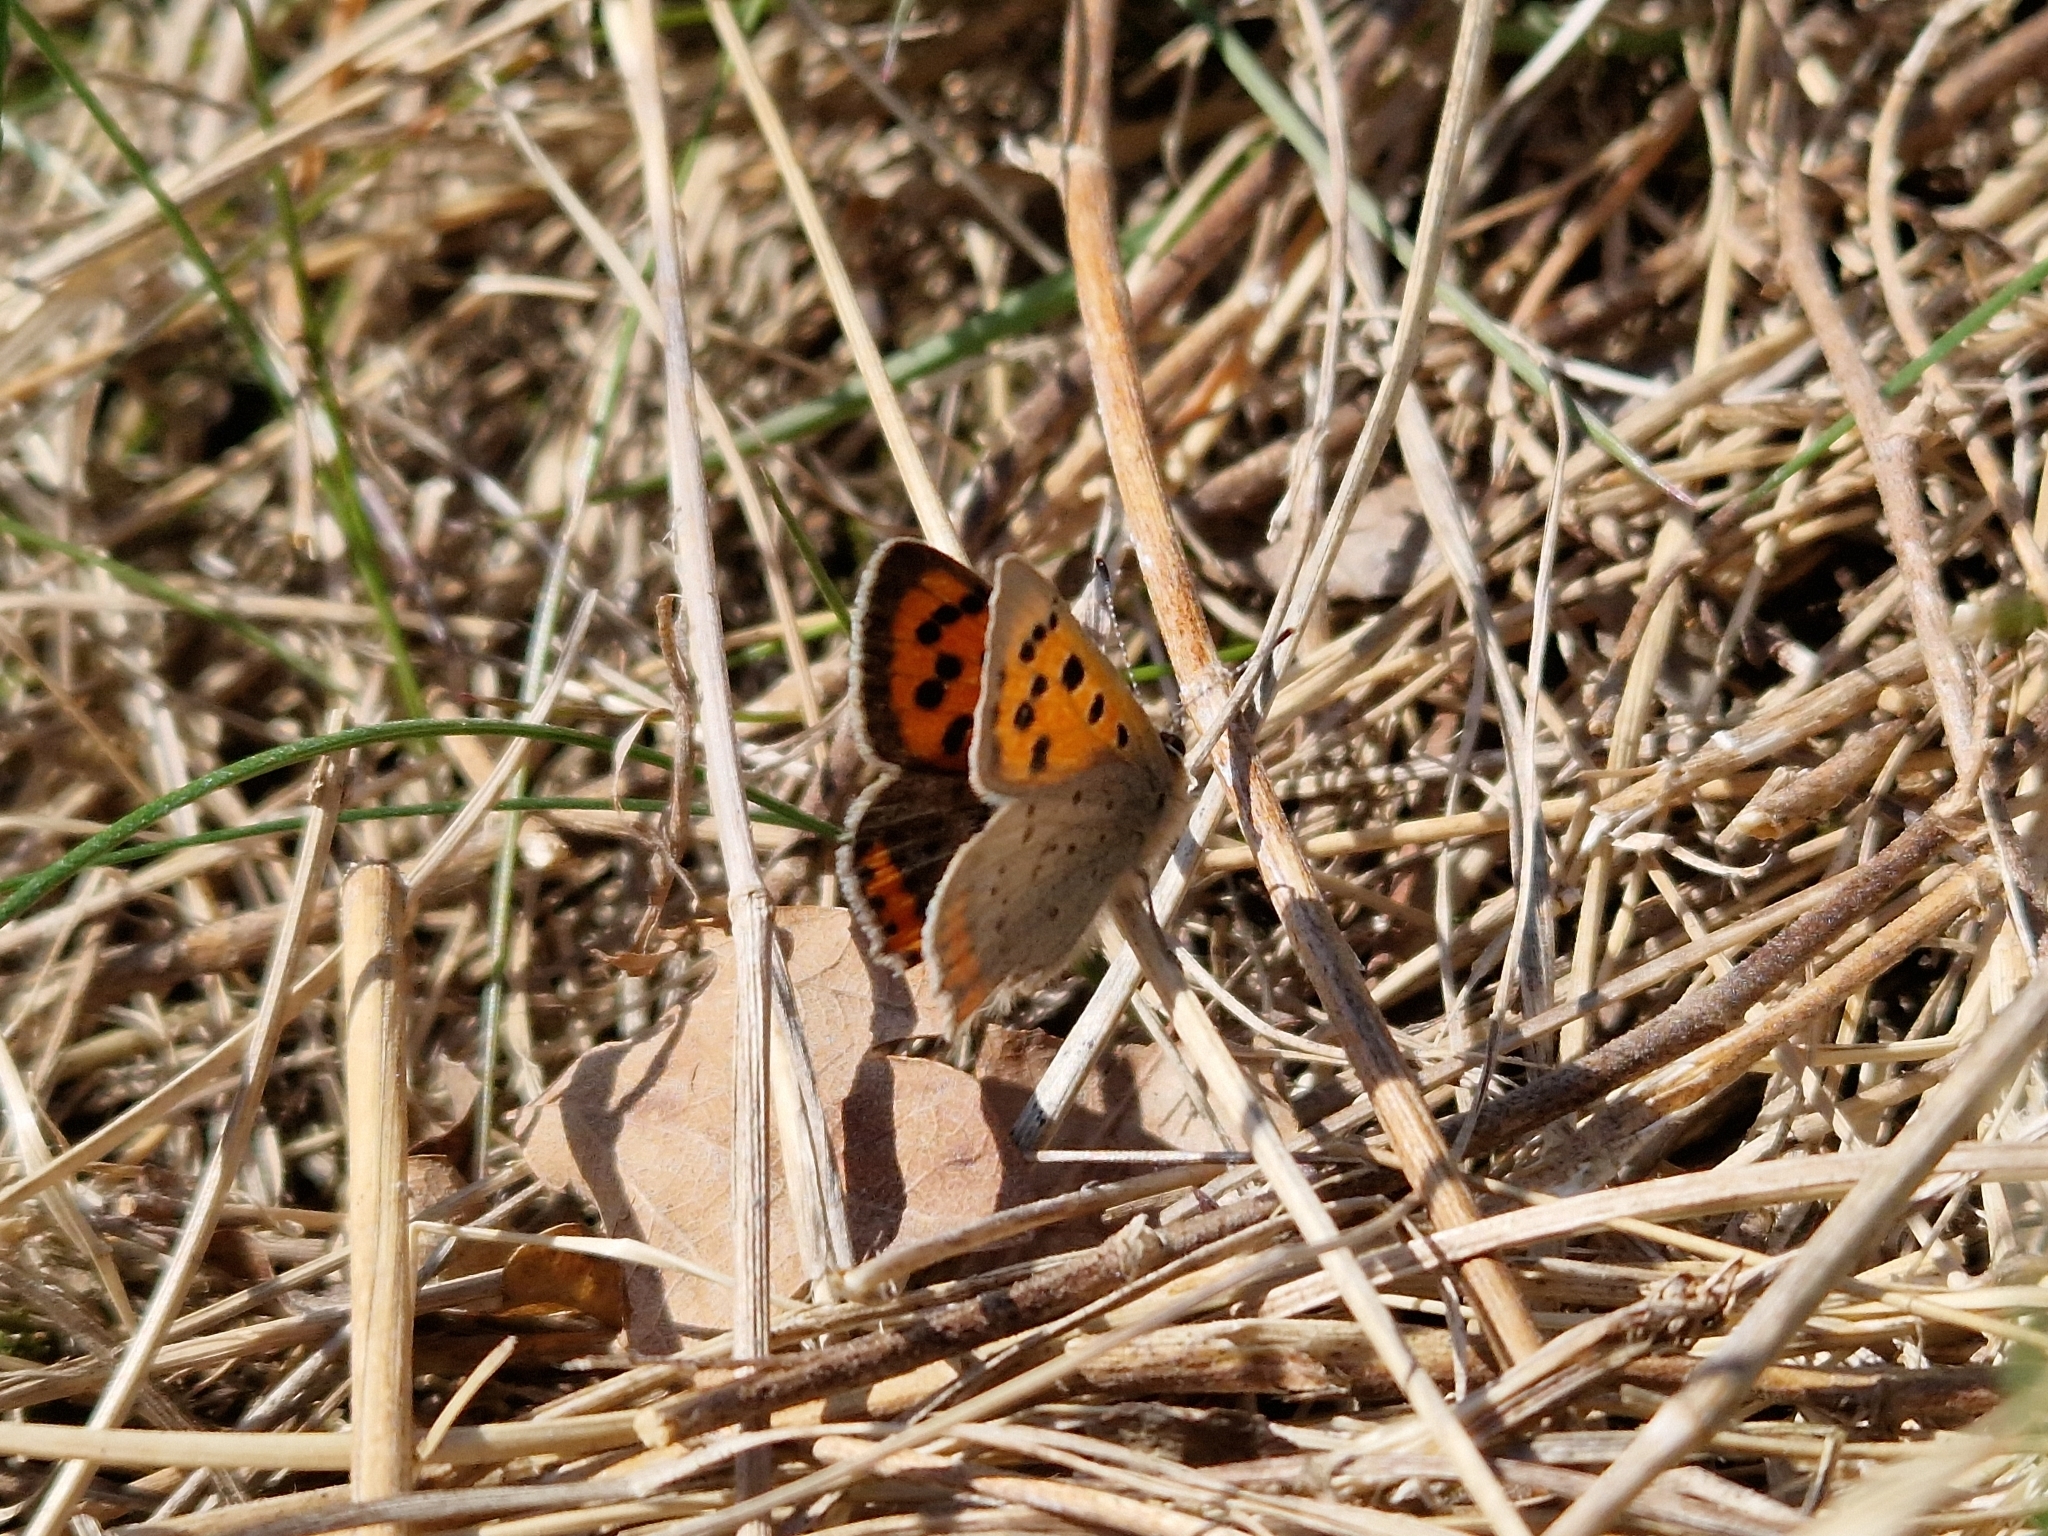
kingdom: Animalia
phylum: Arthropoda
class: Insecta
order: Lepidoptera
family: Lycaenidae
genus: Lycaena
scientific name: Lycaena phlaeas
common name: Small copper
